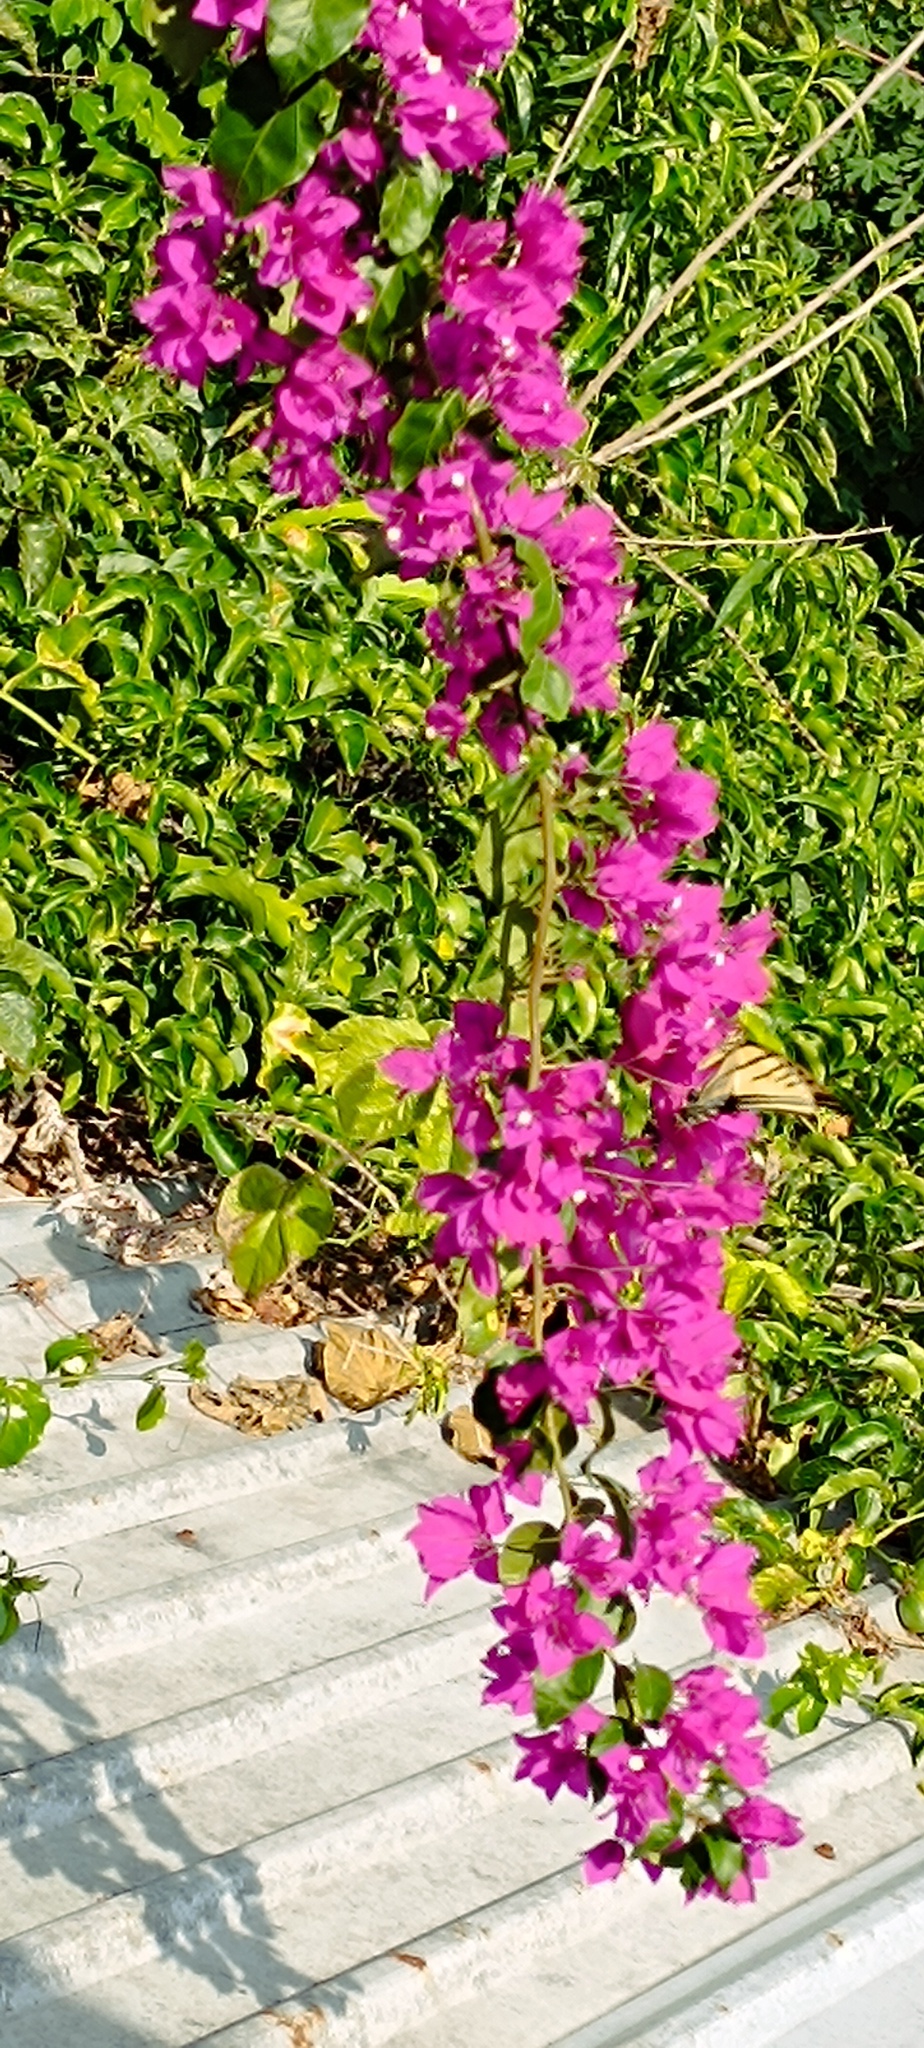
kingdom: Animalia
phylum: Arthropoda
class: Insecta
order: Lepidoptera
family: Papilionidae
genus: Papilio
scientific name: Papilio multicaudata
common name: Two-tailed tiger swallowtail
